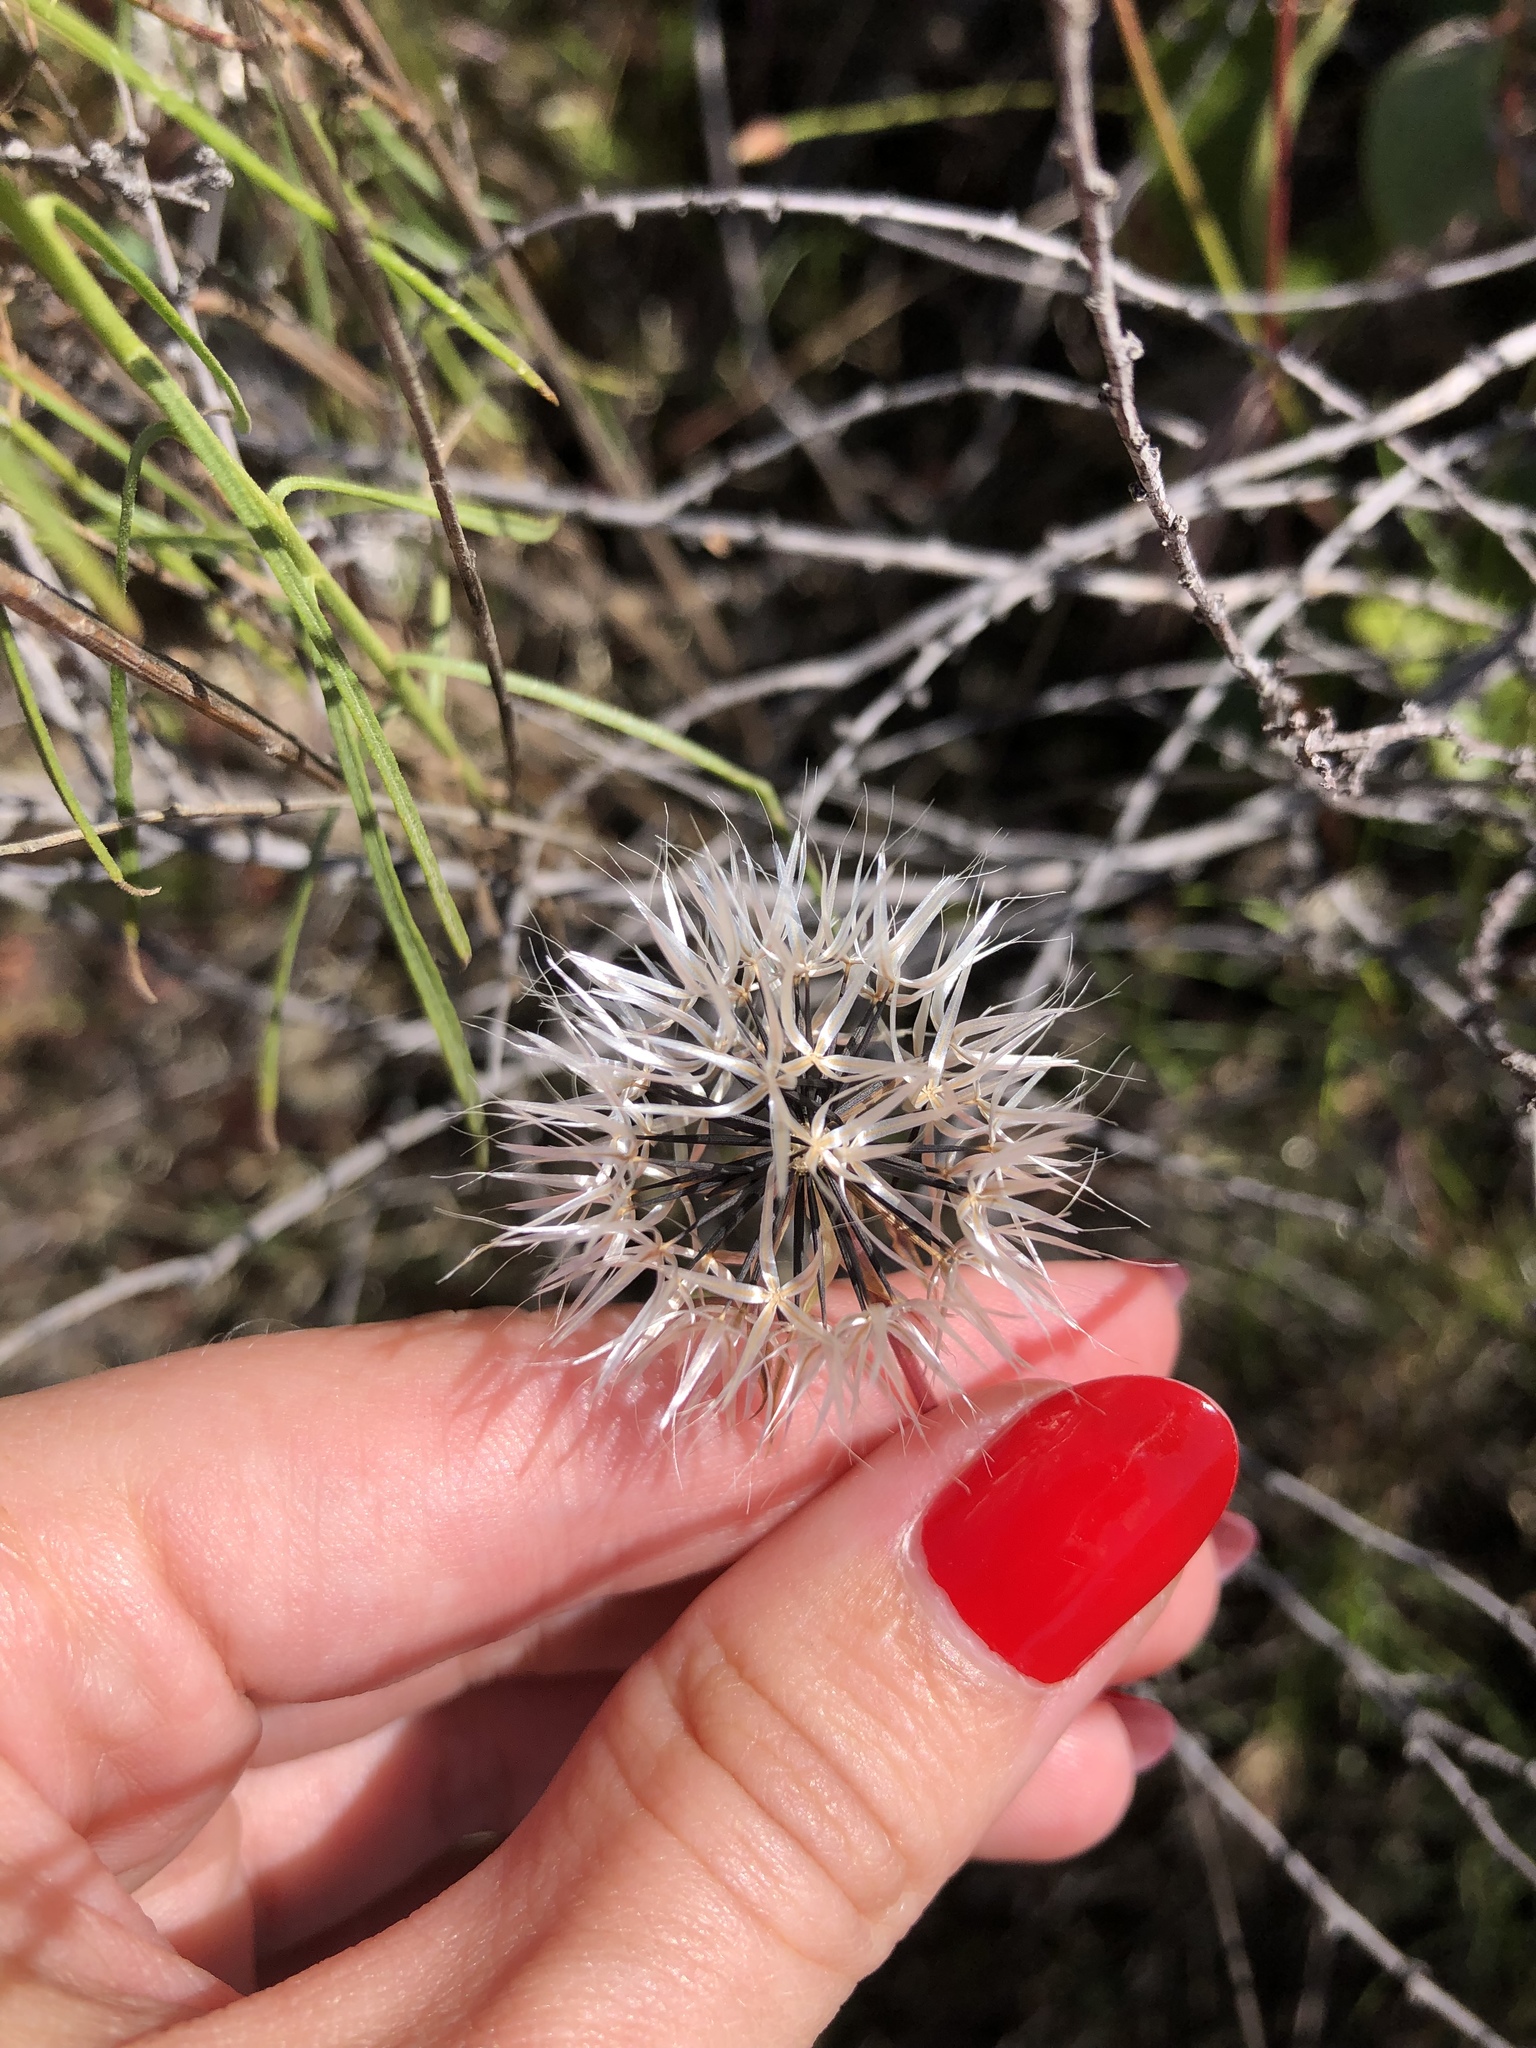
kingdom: Plantae
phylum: Tracheophyta
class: Magnoliopsida
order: Asterales
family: Asteraceae
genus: Microseris
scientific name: Microseris lindleyi
